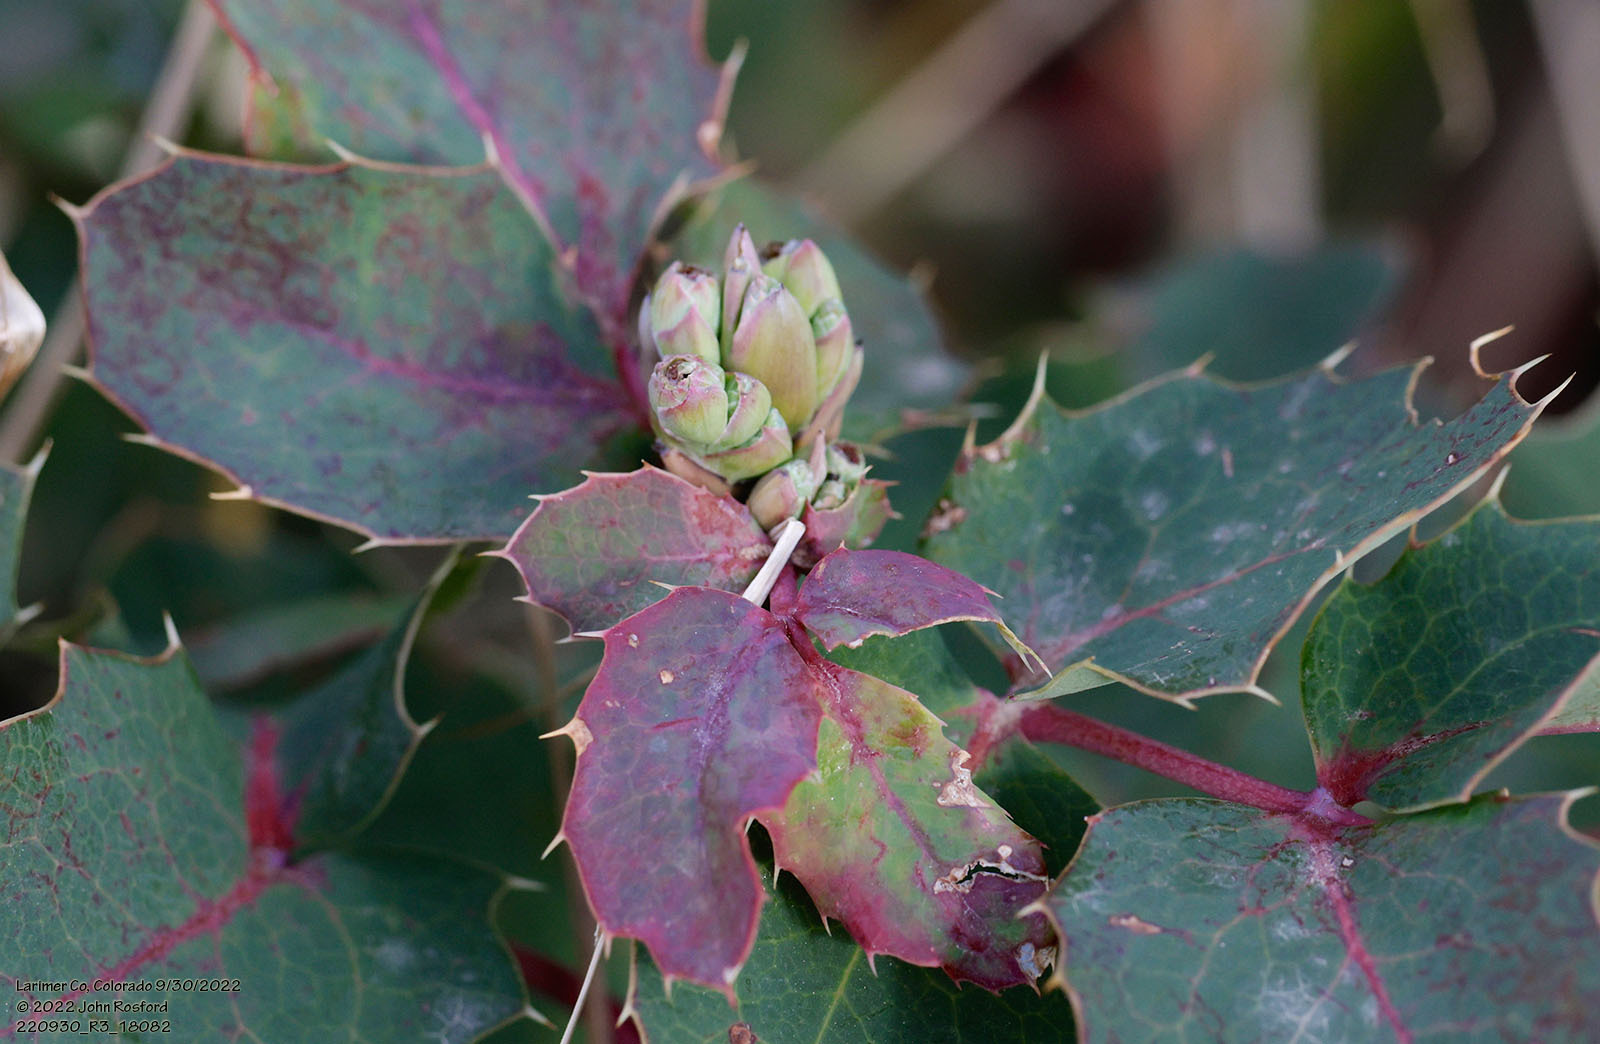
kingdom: Plantae
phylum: Tracheophyta
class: Magnoliopsida
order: Ranunculales
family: Berberidaceae
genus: Mahonia
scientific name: Mahonia repens
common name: Creeping oregon-grape
